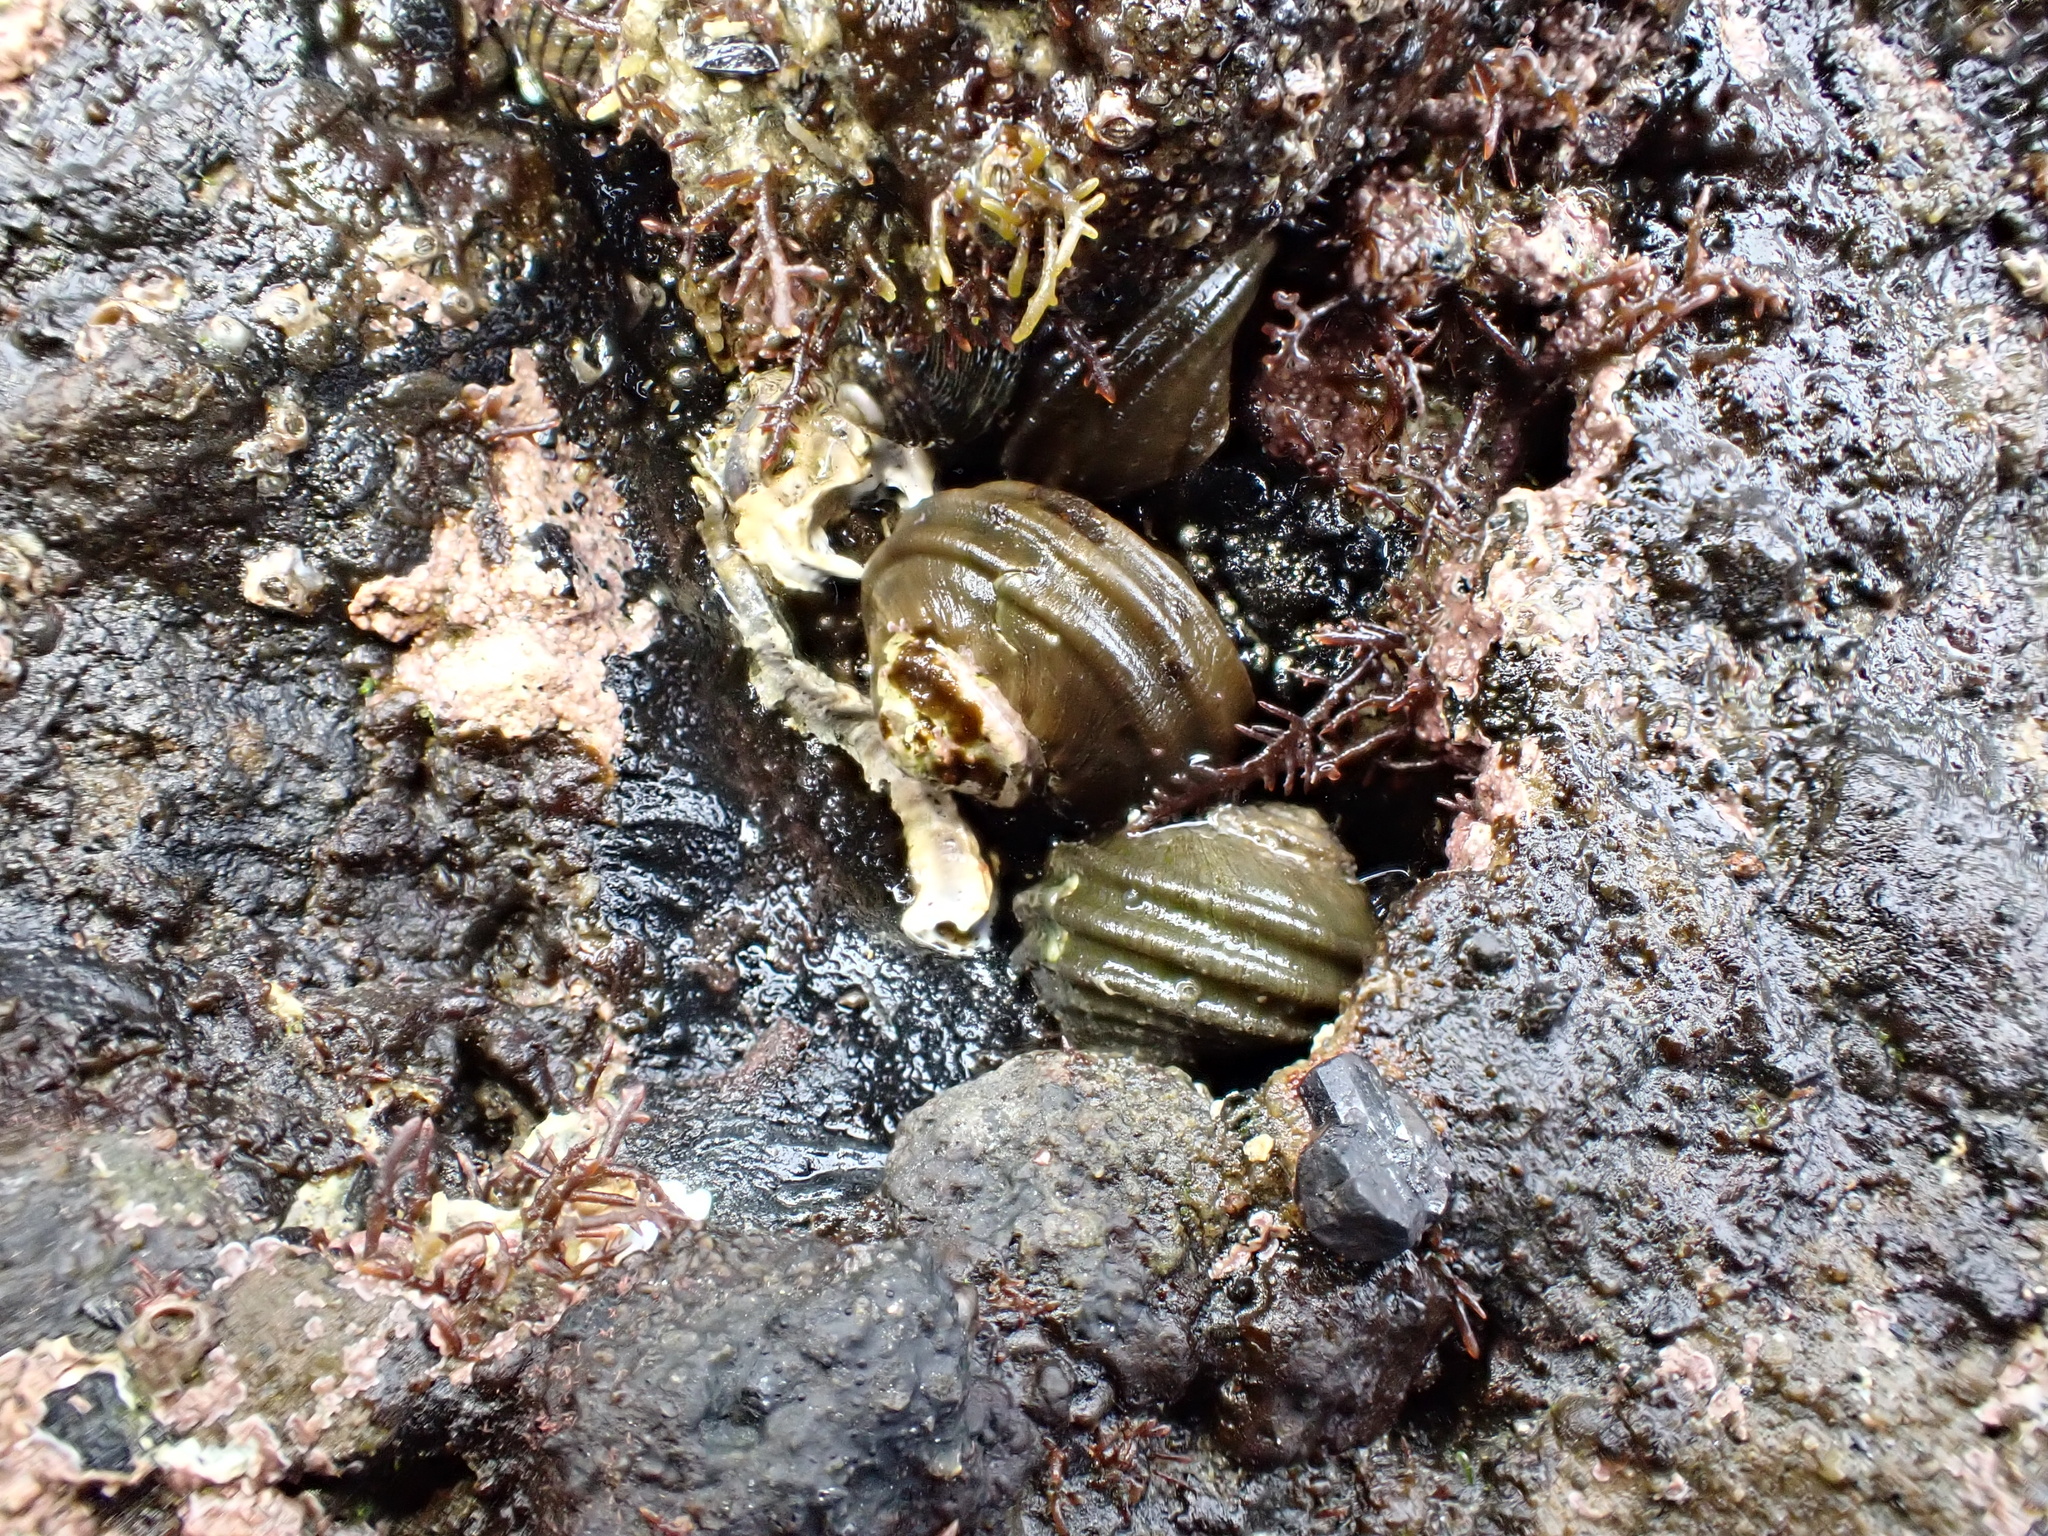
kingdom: Animalia
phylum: Mollusca
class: Gastropoda
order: Trochida
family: Turbinidae
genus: Lunella
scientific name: Lunella smaragda
